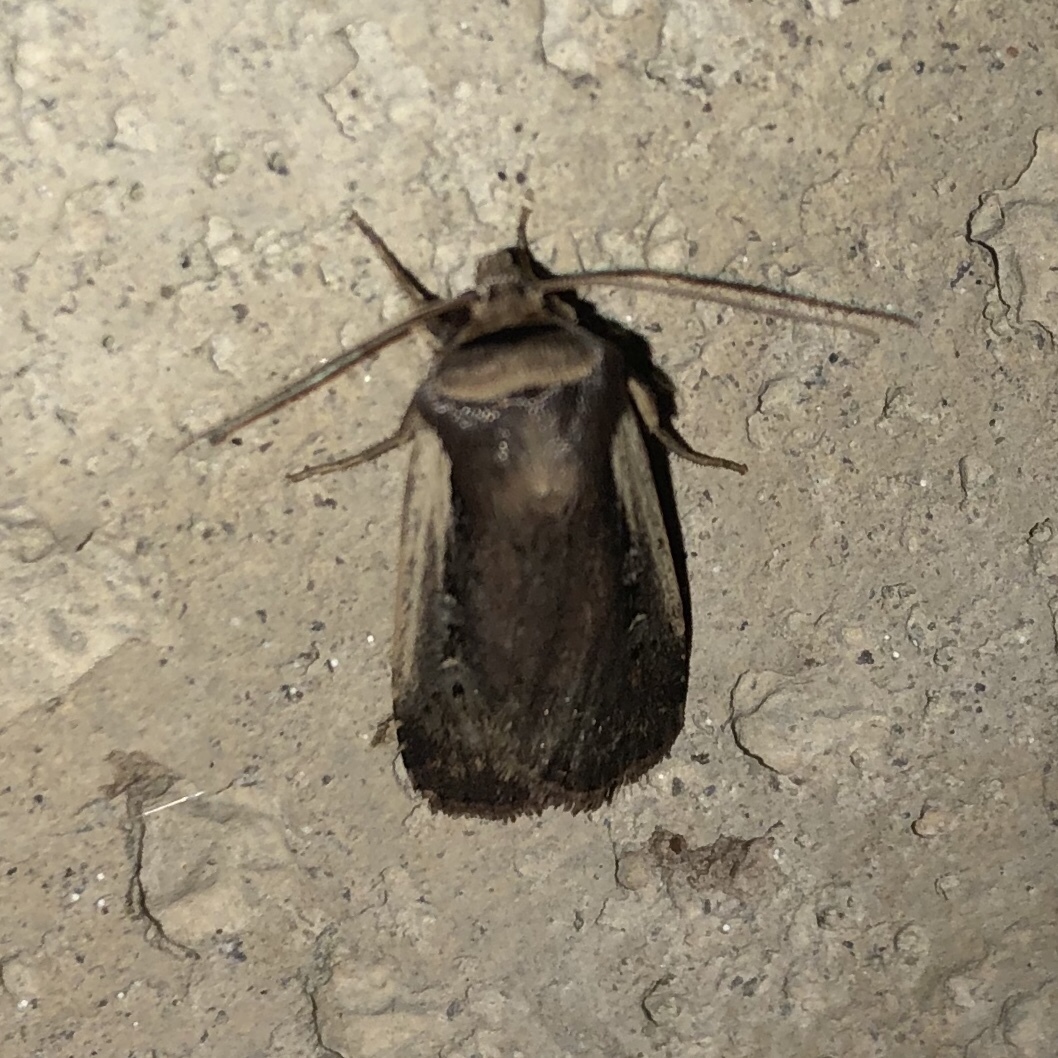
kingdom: Animalia
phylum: Arthropoda
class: Insecta
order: Lepidoptera
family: Noctuidae
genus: Ochropleura
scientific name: Ochropleura implecta
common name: Flame-shouldered dart
